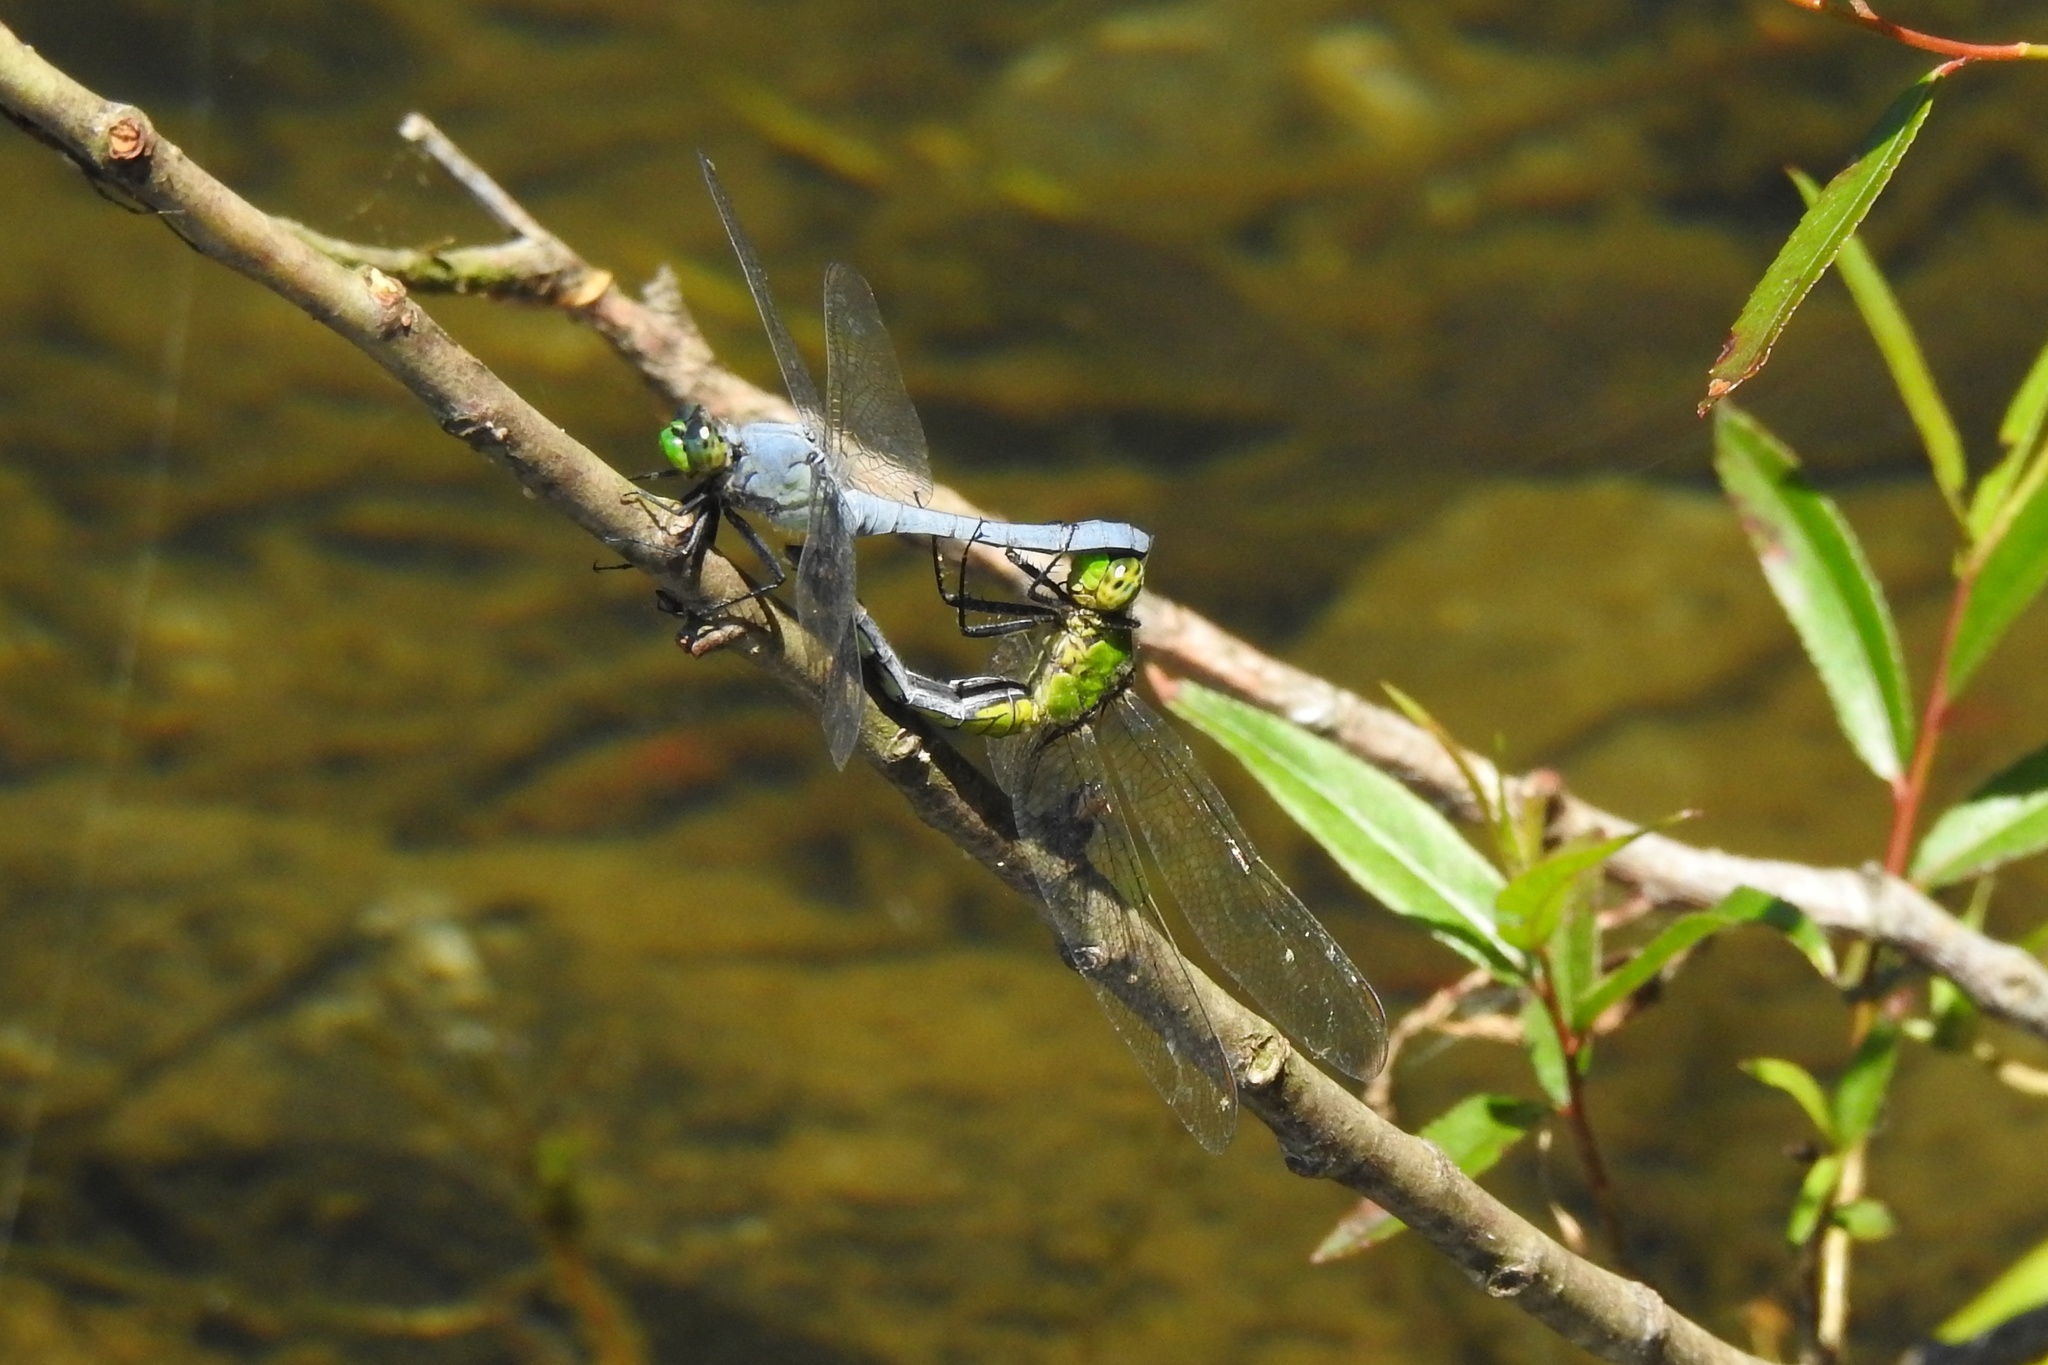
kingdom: Animalia
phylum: Arthropoda
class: Insecta
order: Odonata
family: Libellulidae
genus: Erythemis
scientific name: Erythemis simplicicollis
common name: Eastern pondhawk
